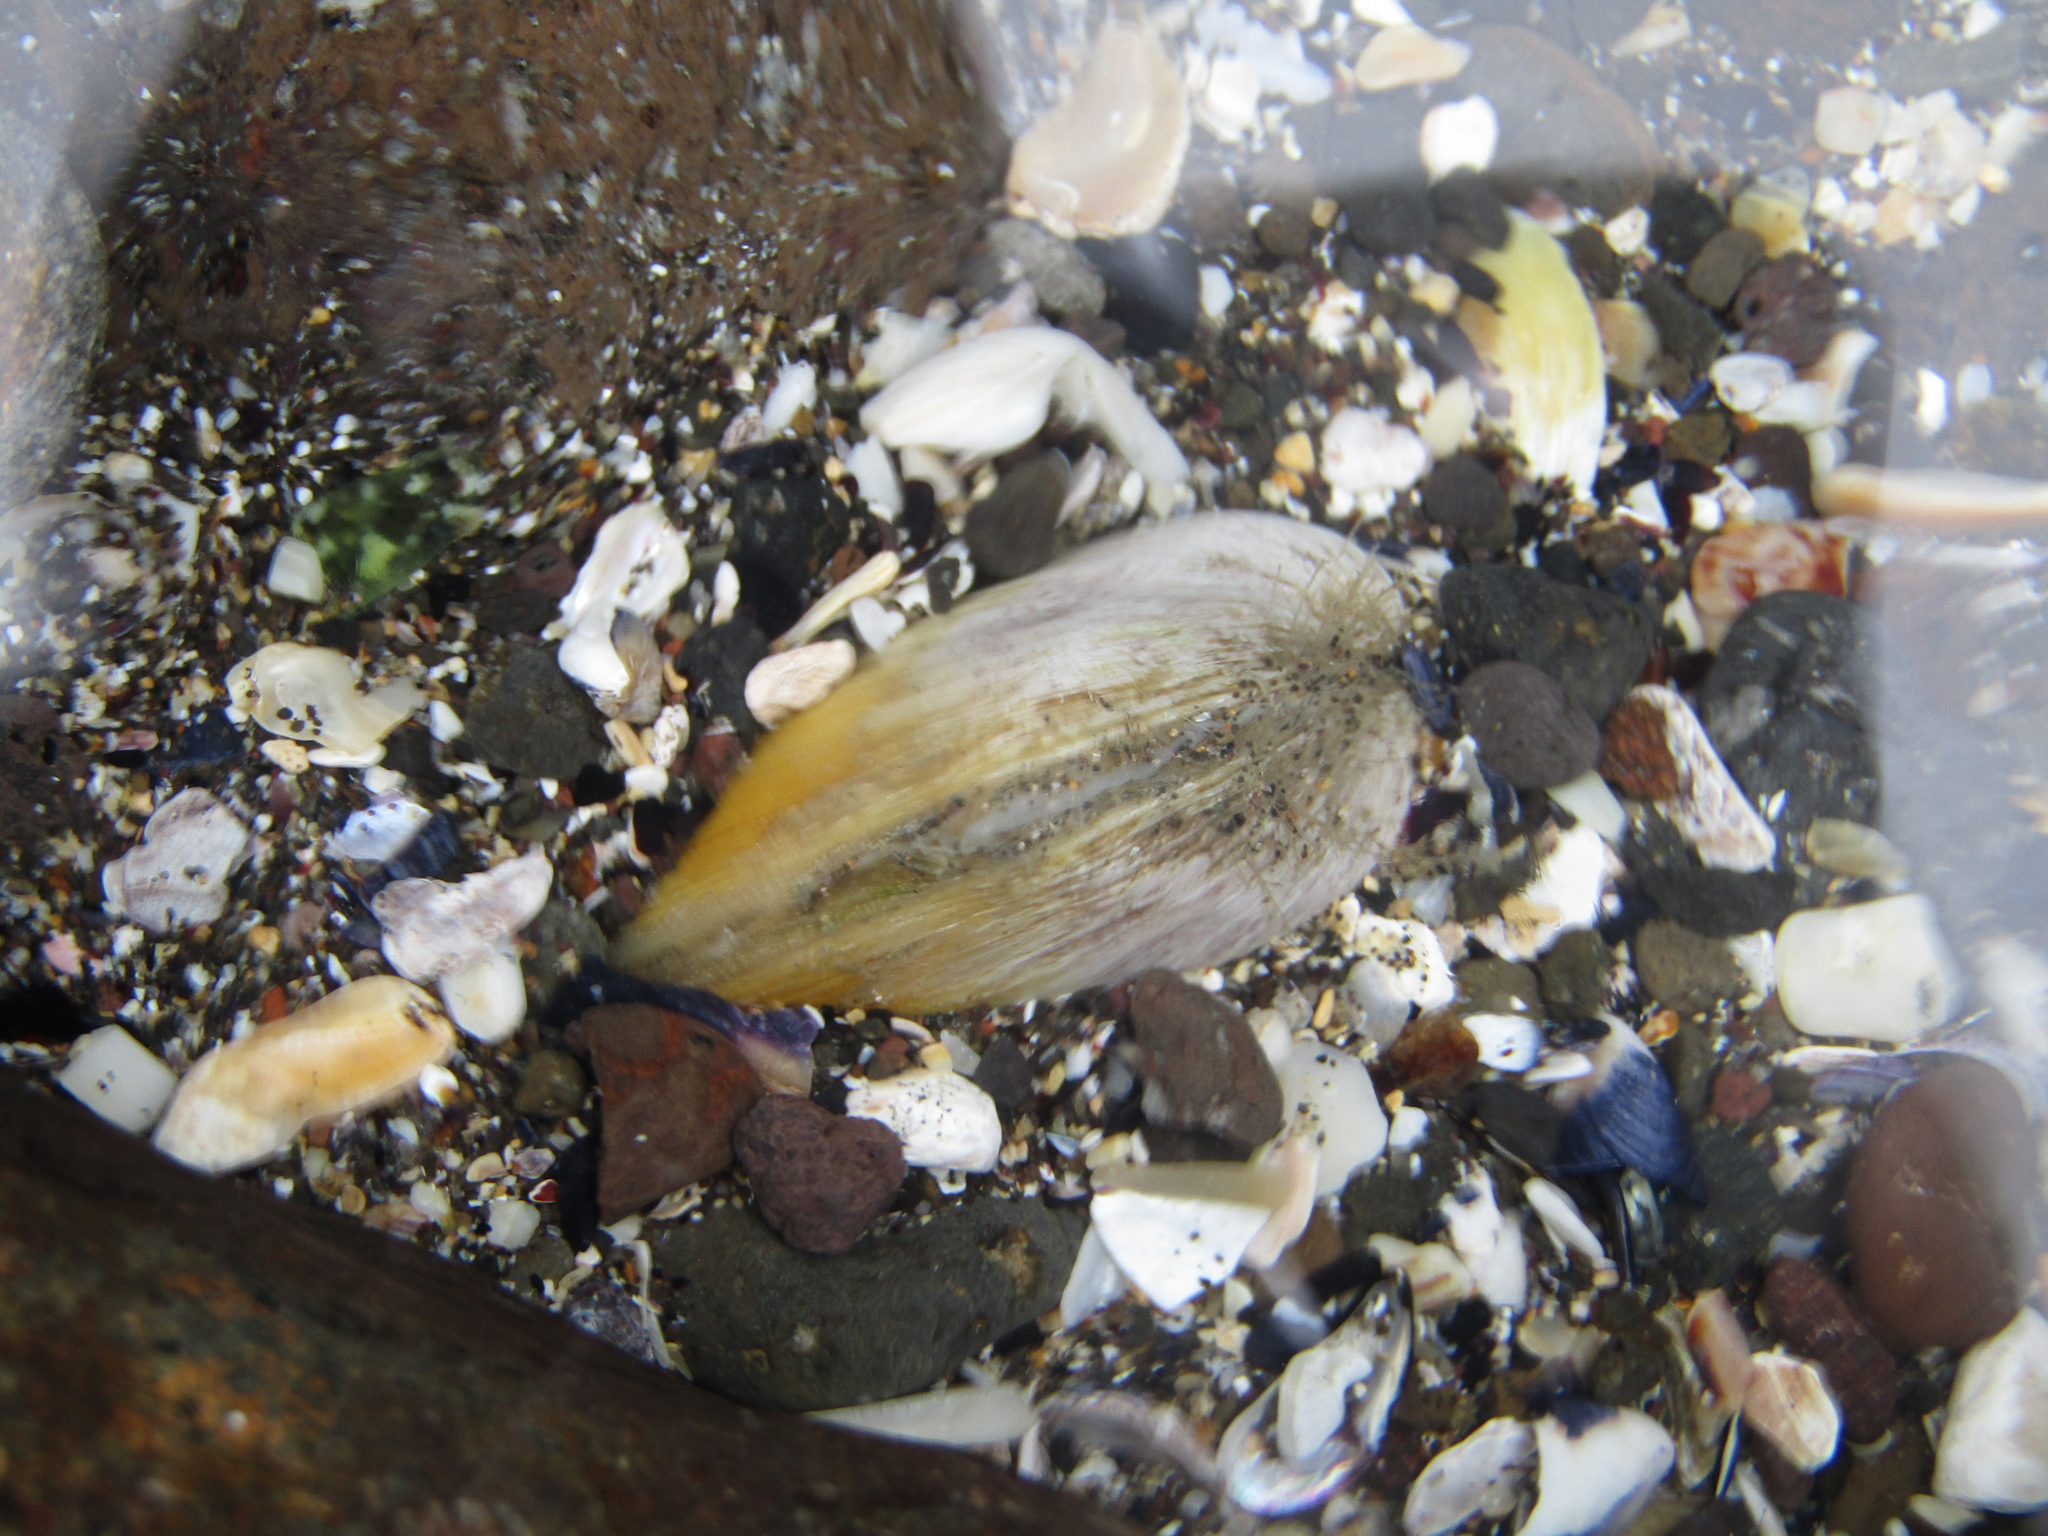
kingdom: Animalia
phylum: Mollusca
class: Bivalvia
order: Venerida
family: Mesodesmatidae
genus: Paphies
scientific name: Paphies donacina
